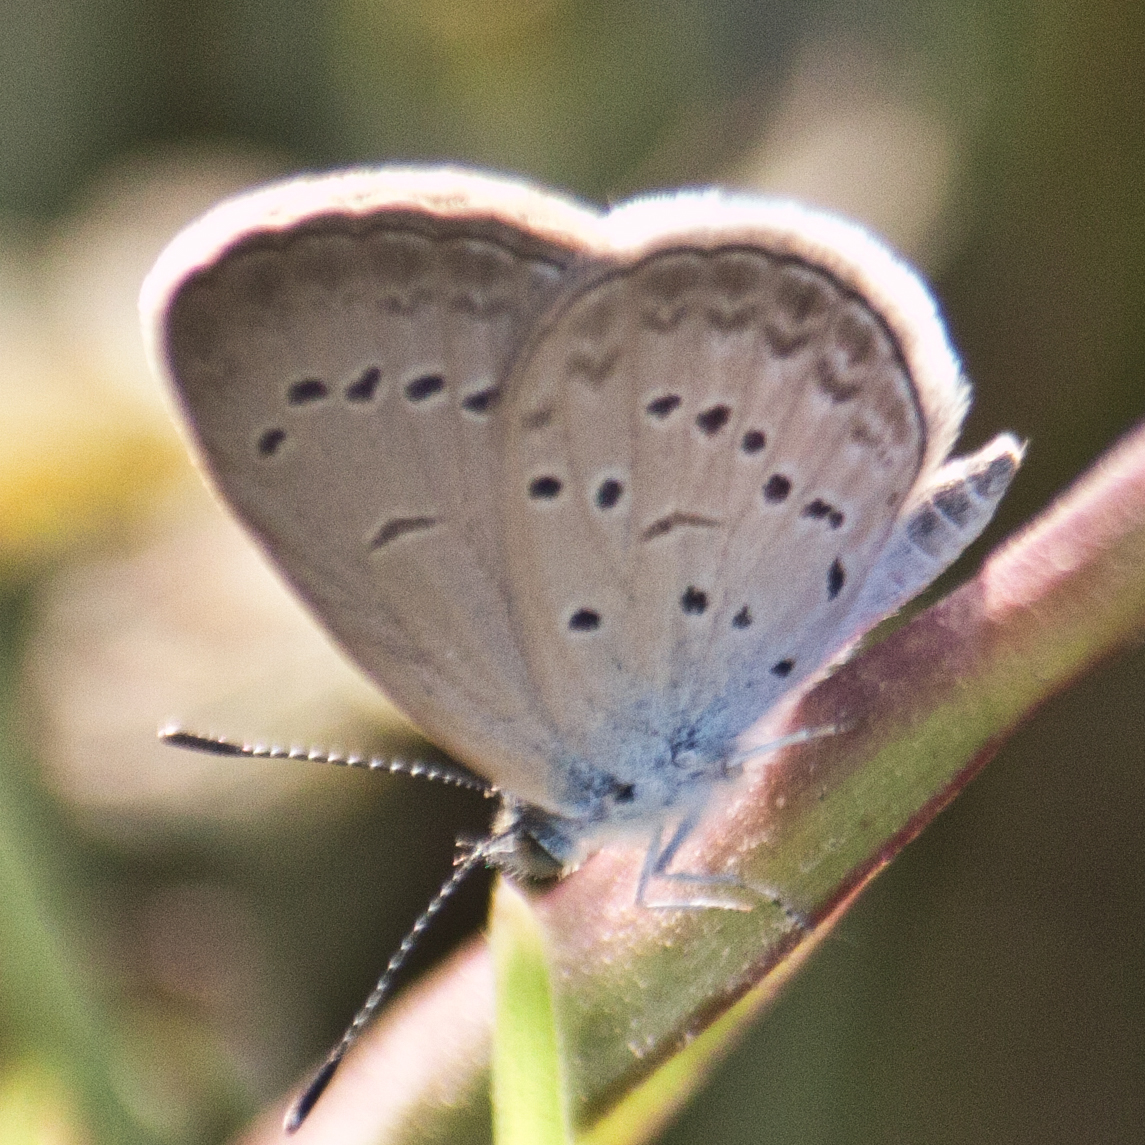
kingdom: Animalia
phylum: Arthropoda
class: Insecta
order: Lepidoptera
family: Lycaenidae
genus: Zizina
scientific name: Zizina otis
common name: Lesser grass blue
